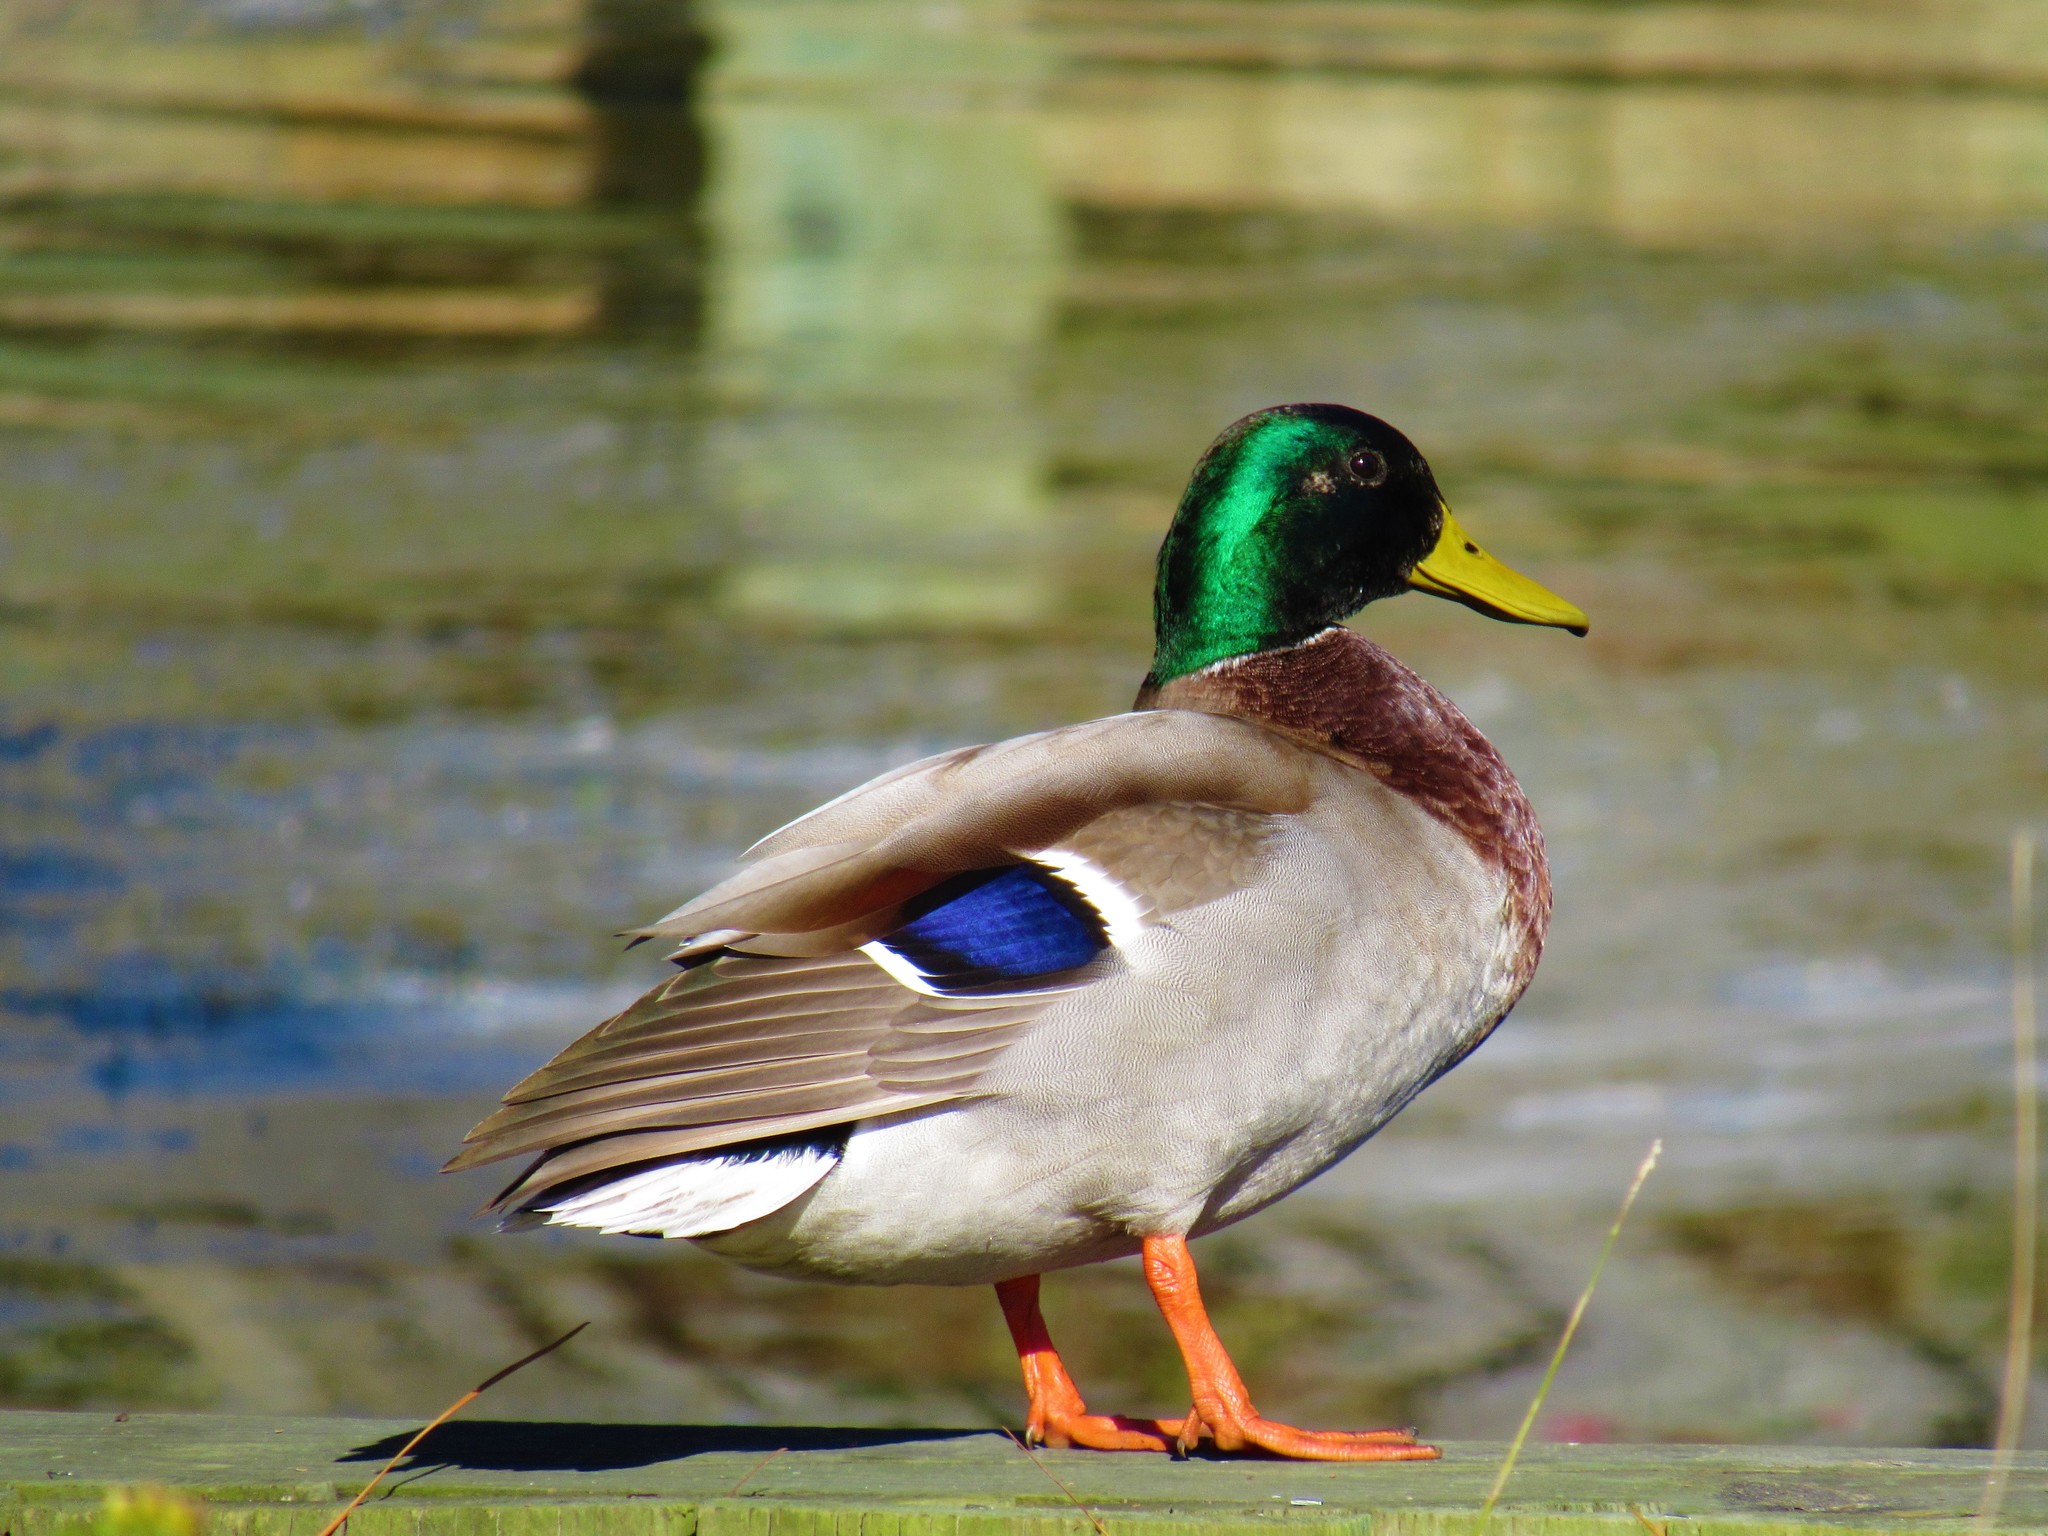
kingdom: Animalia
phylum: Chordata
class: Aves
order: Anseriformes
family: Anatidae
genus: Anas
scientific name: Anas platyrhynchos
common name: Mallard
